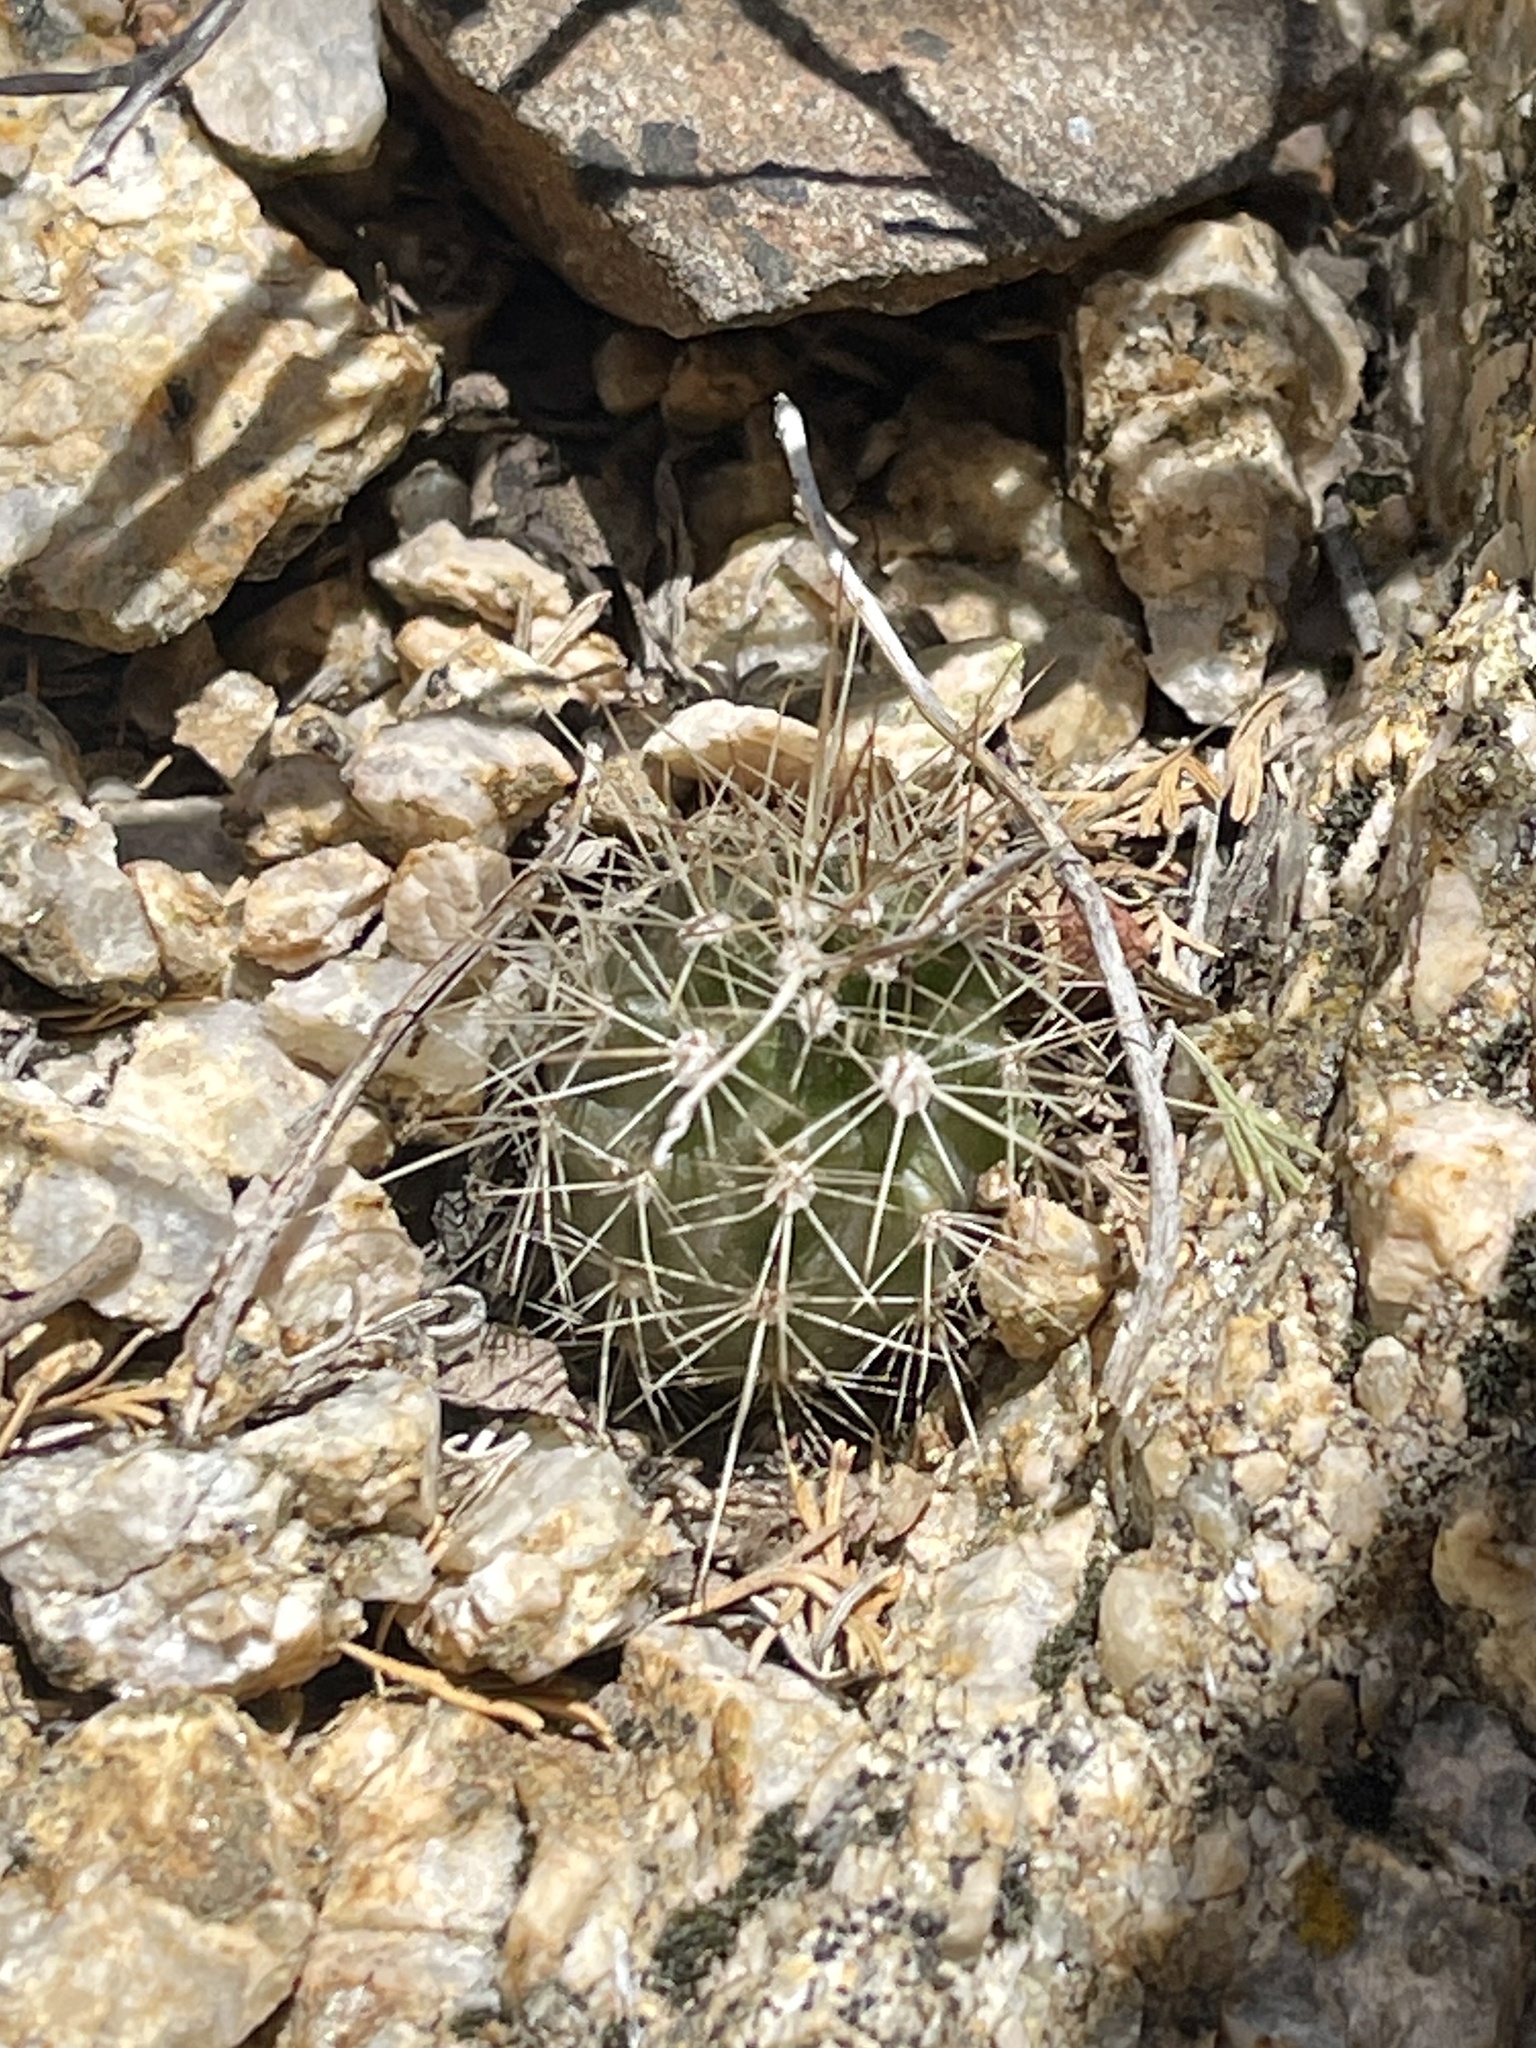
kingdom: Plantae
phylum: Tracheophyta
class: Magnoliopsida
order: Caryophyllales
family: Cactaceae
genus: Echinocereus
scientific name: Echinocereus bakeri
